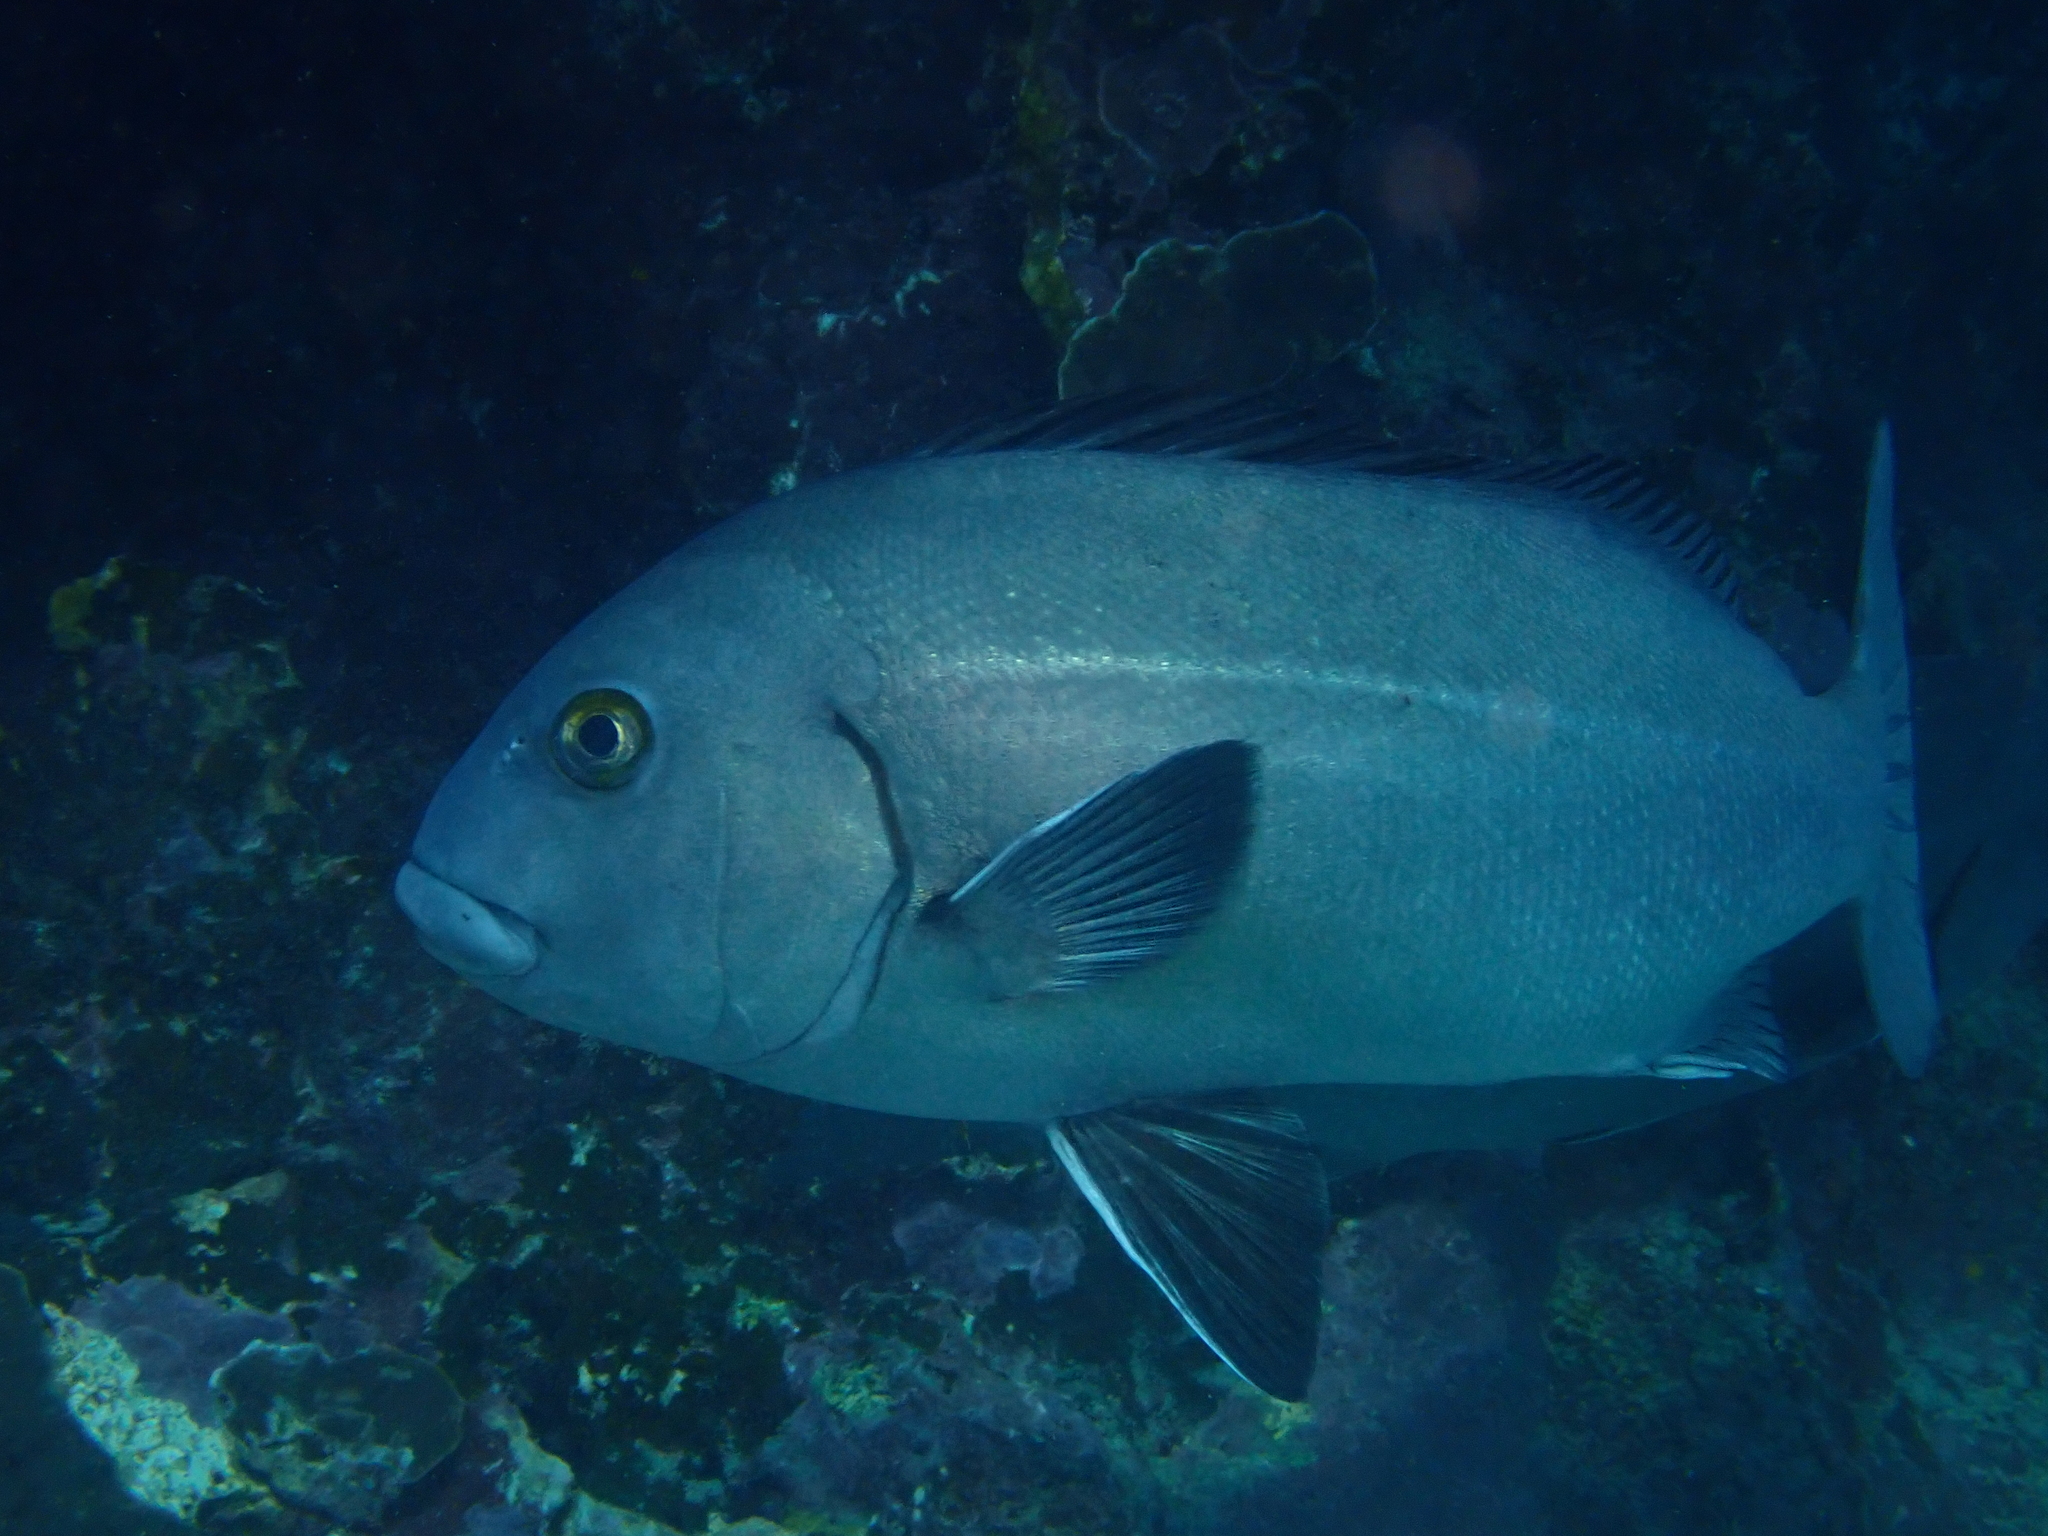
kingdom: Animalia
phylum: Chordata
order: Perciformes
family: Haemulidae
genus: Plectorhinchus
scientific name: Plectorhinchus caeruleonothus
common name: Blue bastard
